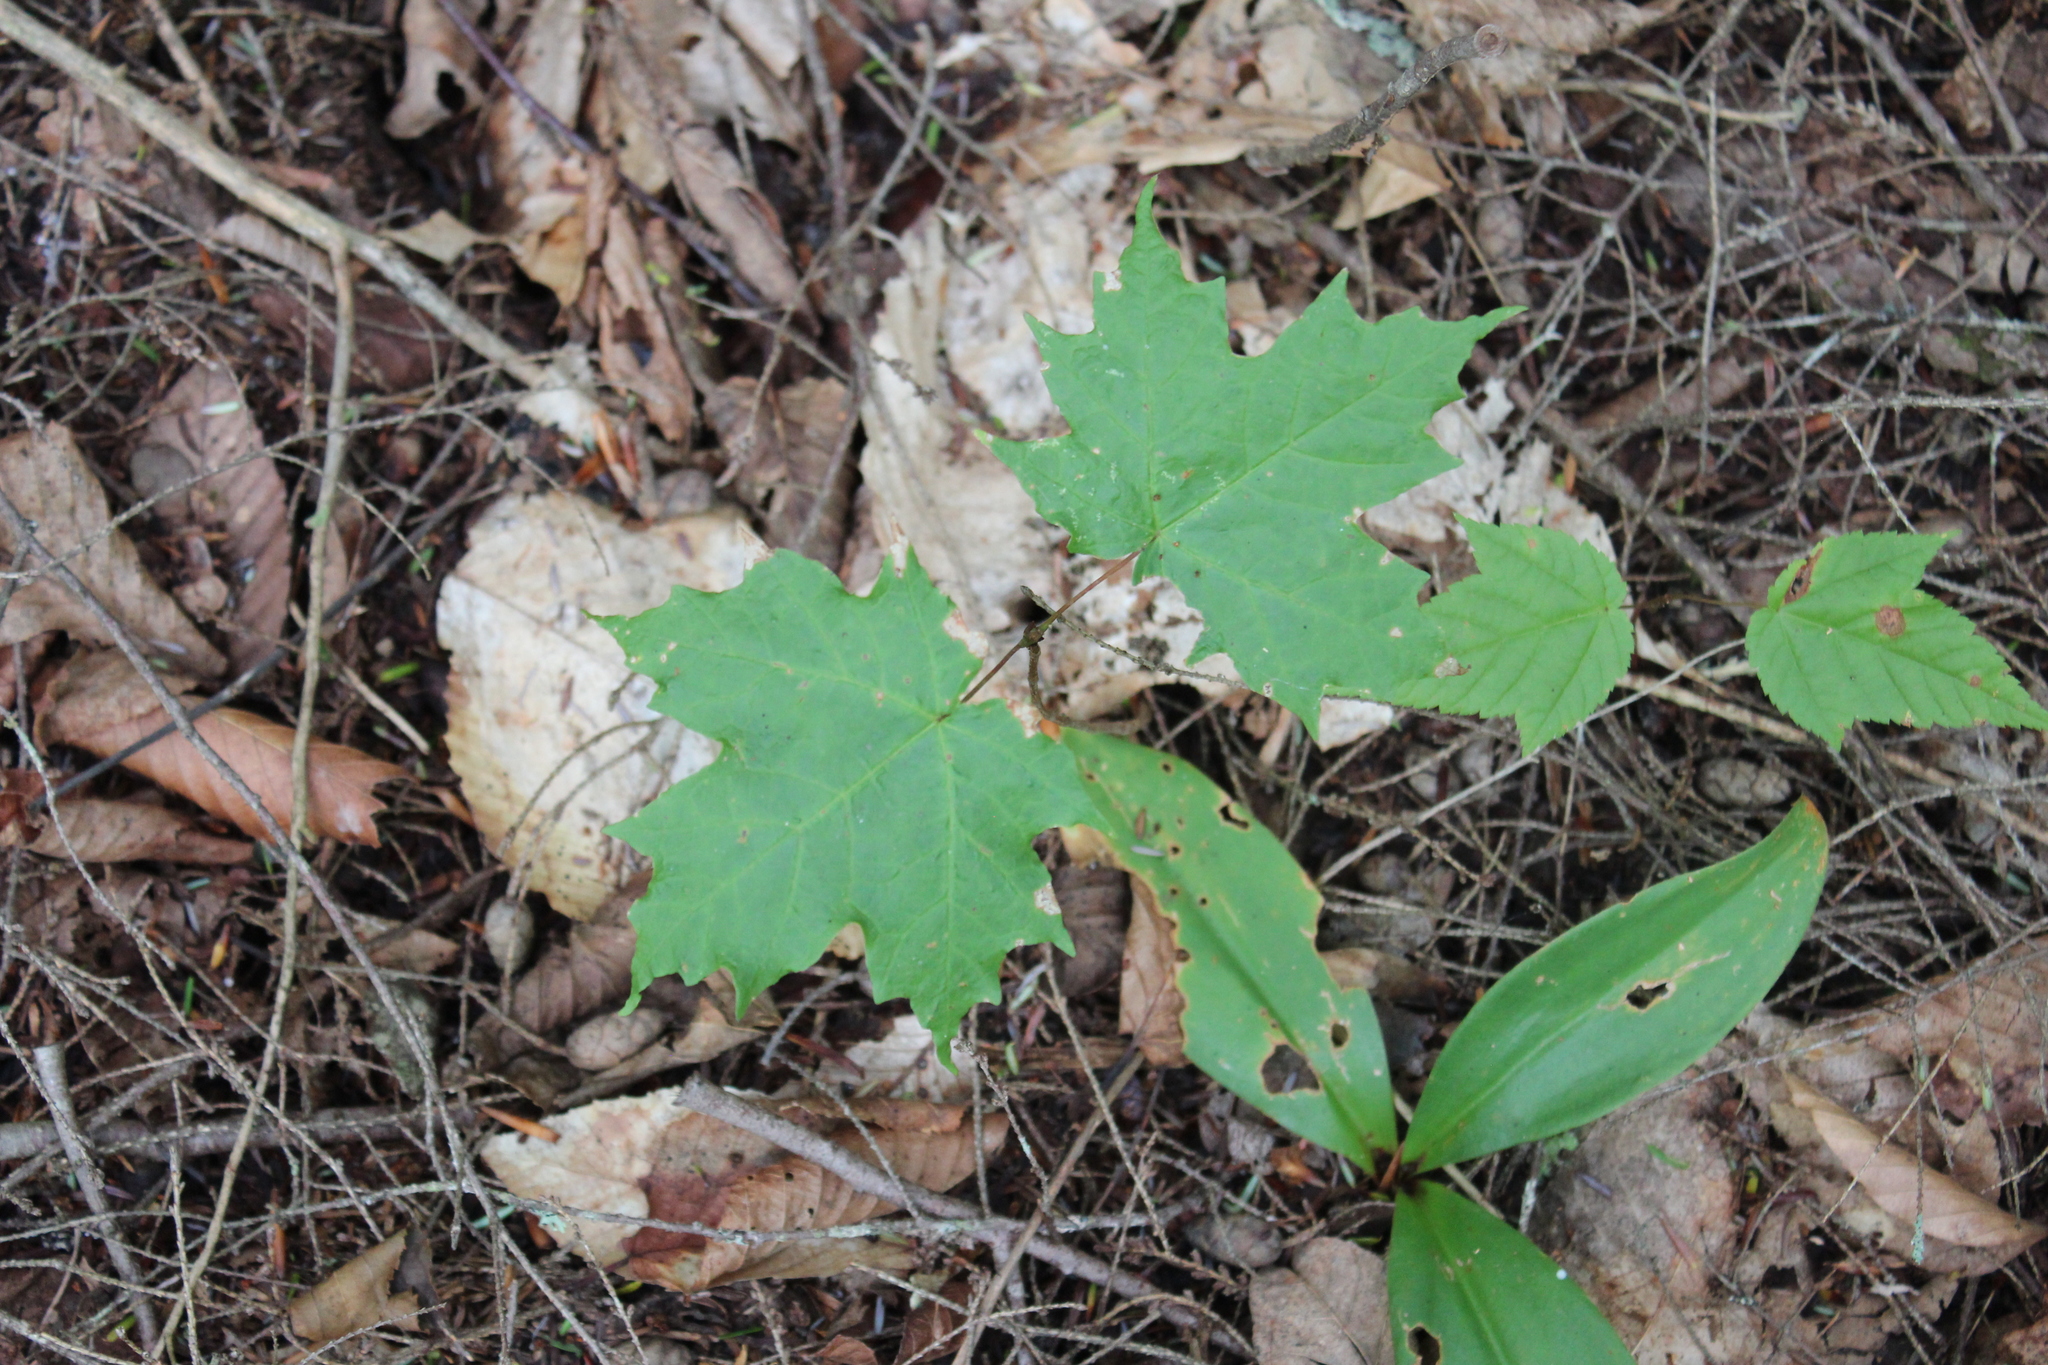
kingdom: Plantae
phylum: Tracheophyta
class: Magnoliopsida
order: Sapindales
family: Sapindaceae
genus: Acer
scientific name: Acer saccharum
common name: Sugar maple
